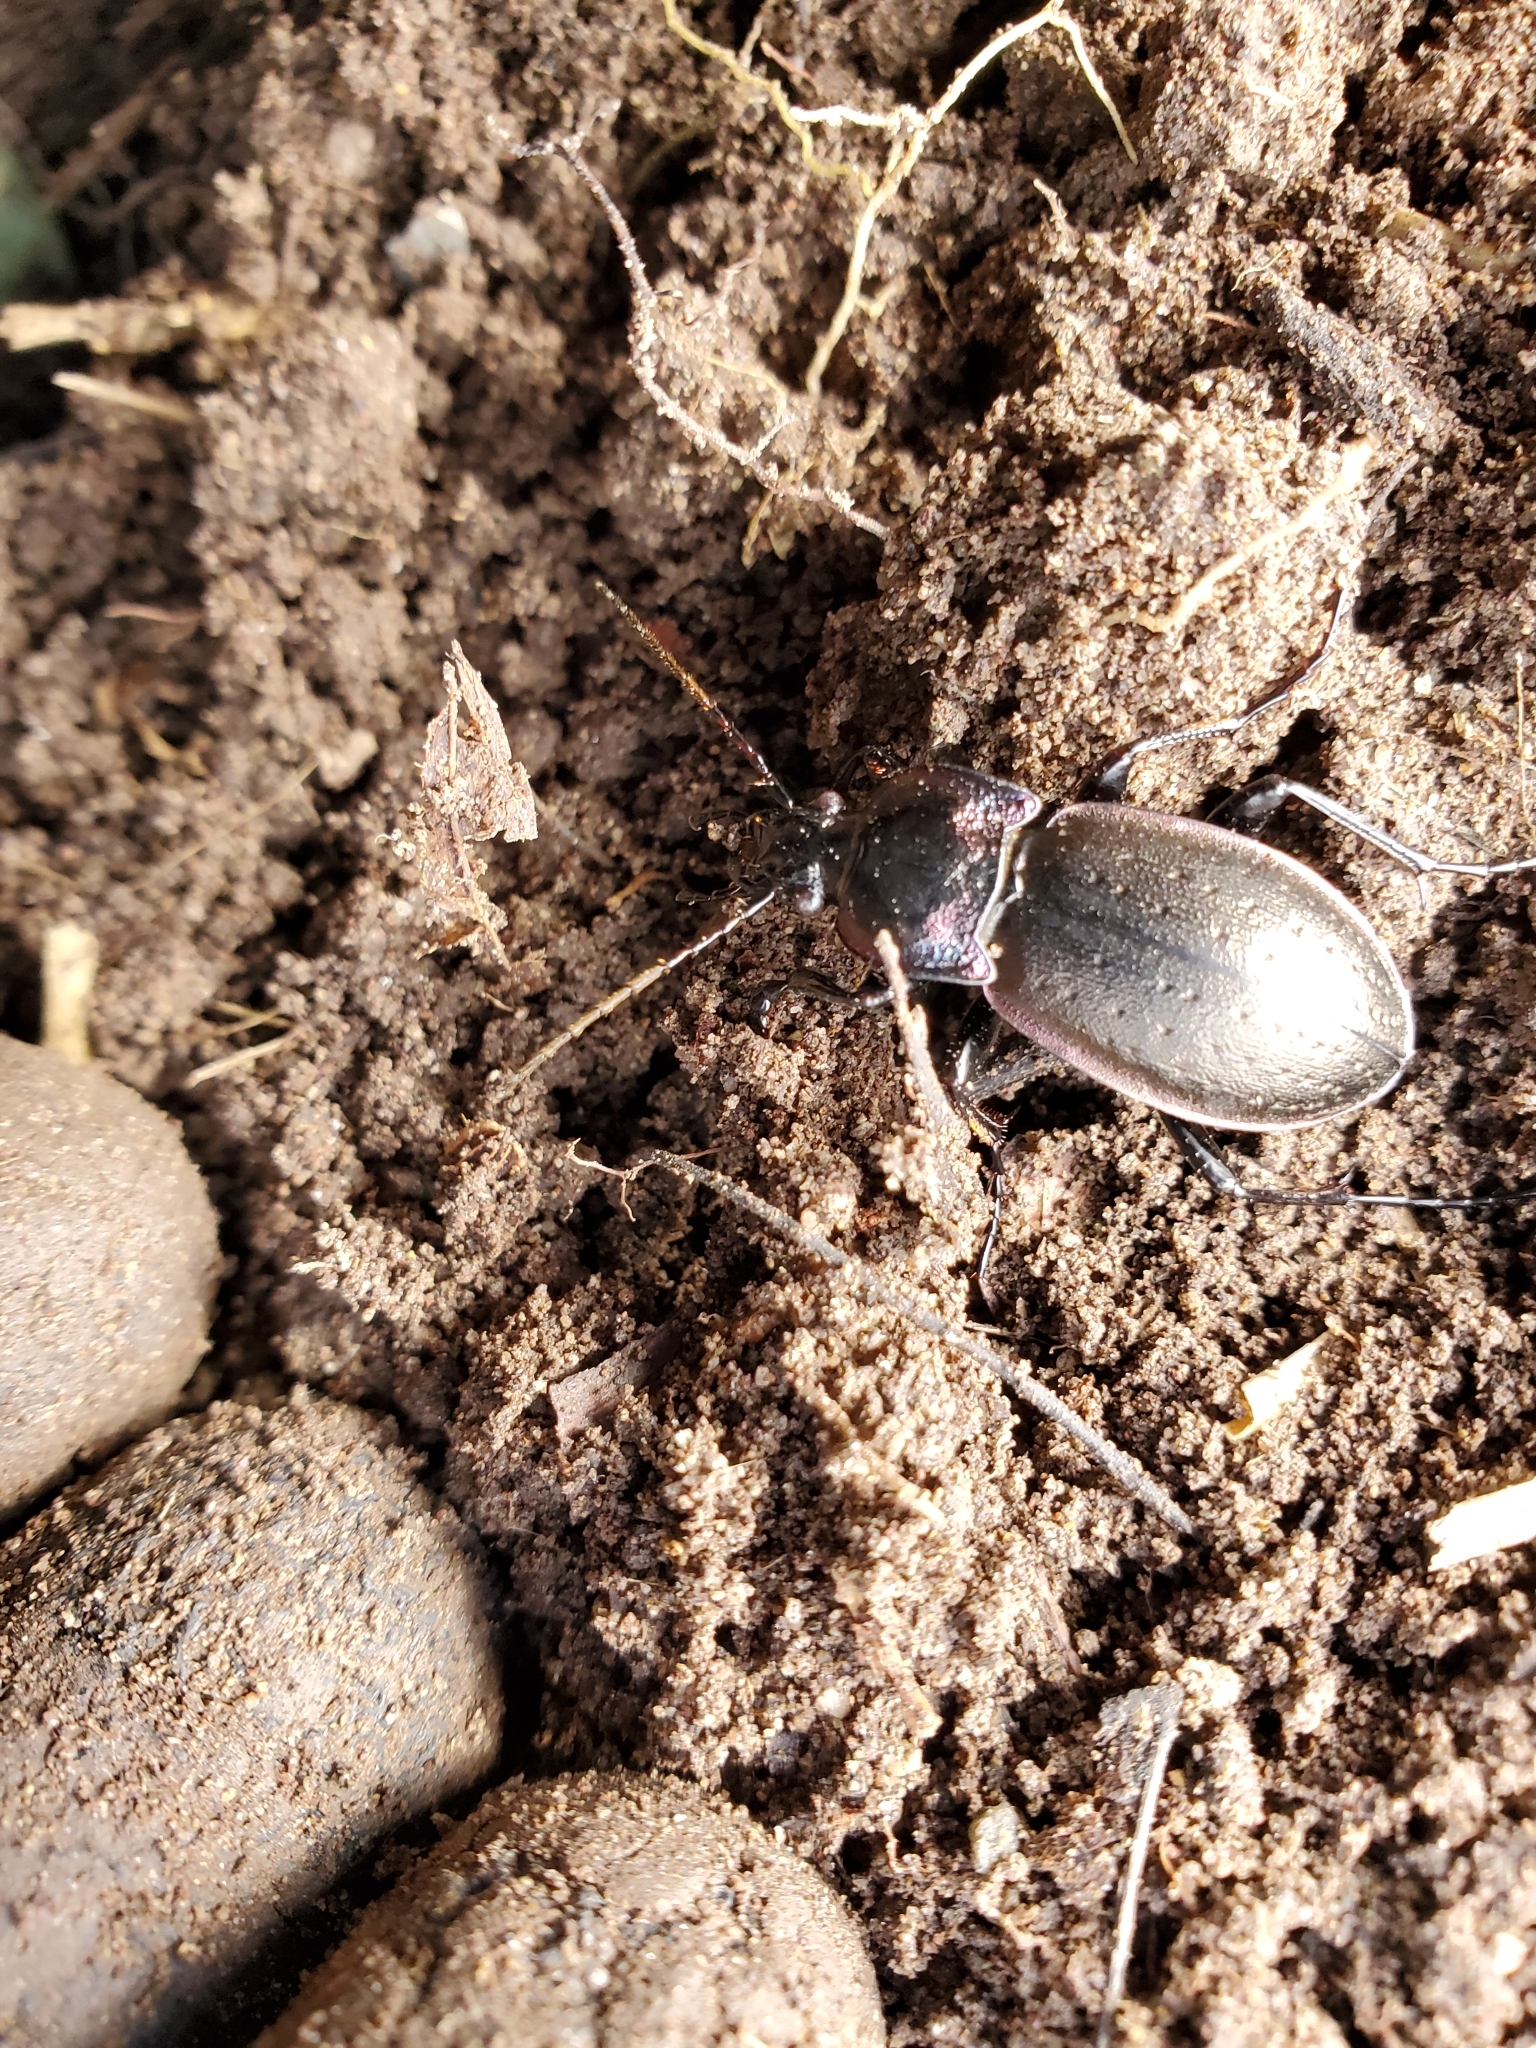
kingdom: Animalia
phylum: Arthropoda
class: Insecta
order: Coleoptera
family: Carabidae
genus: Carabus
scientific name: Carabus nemoralis
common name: European ground beetle
